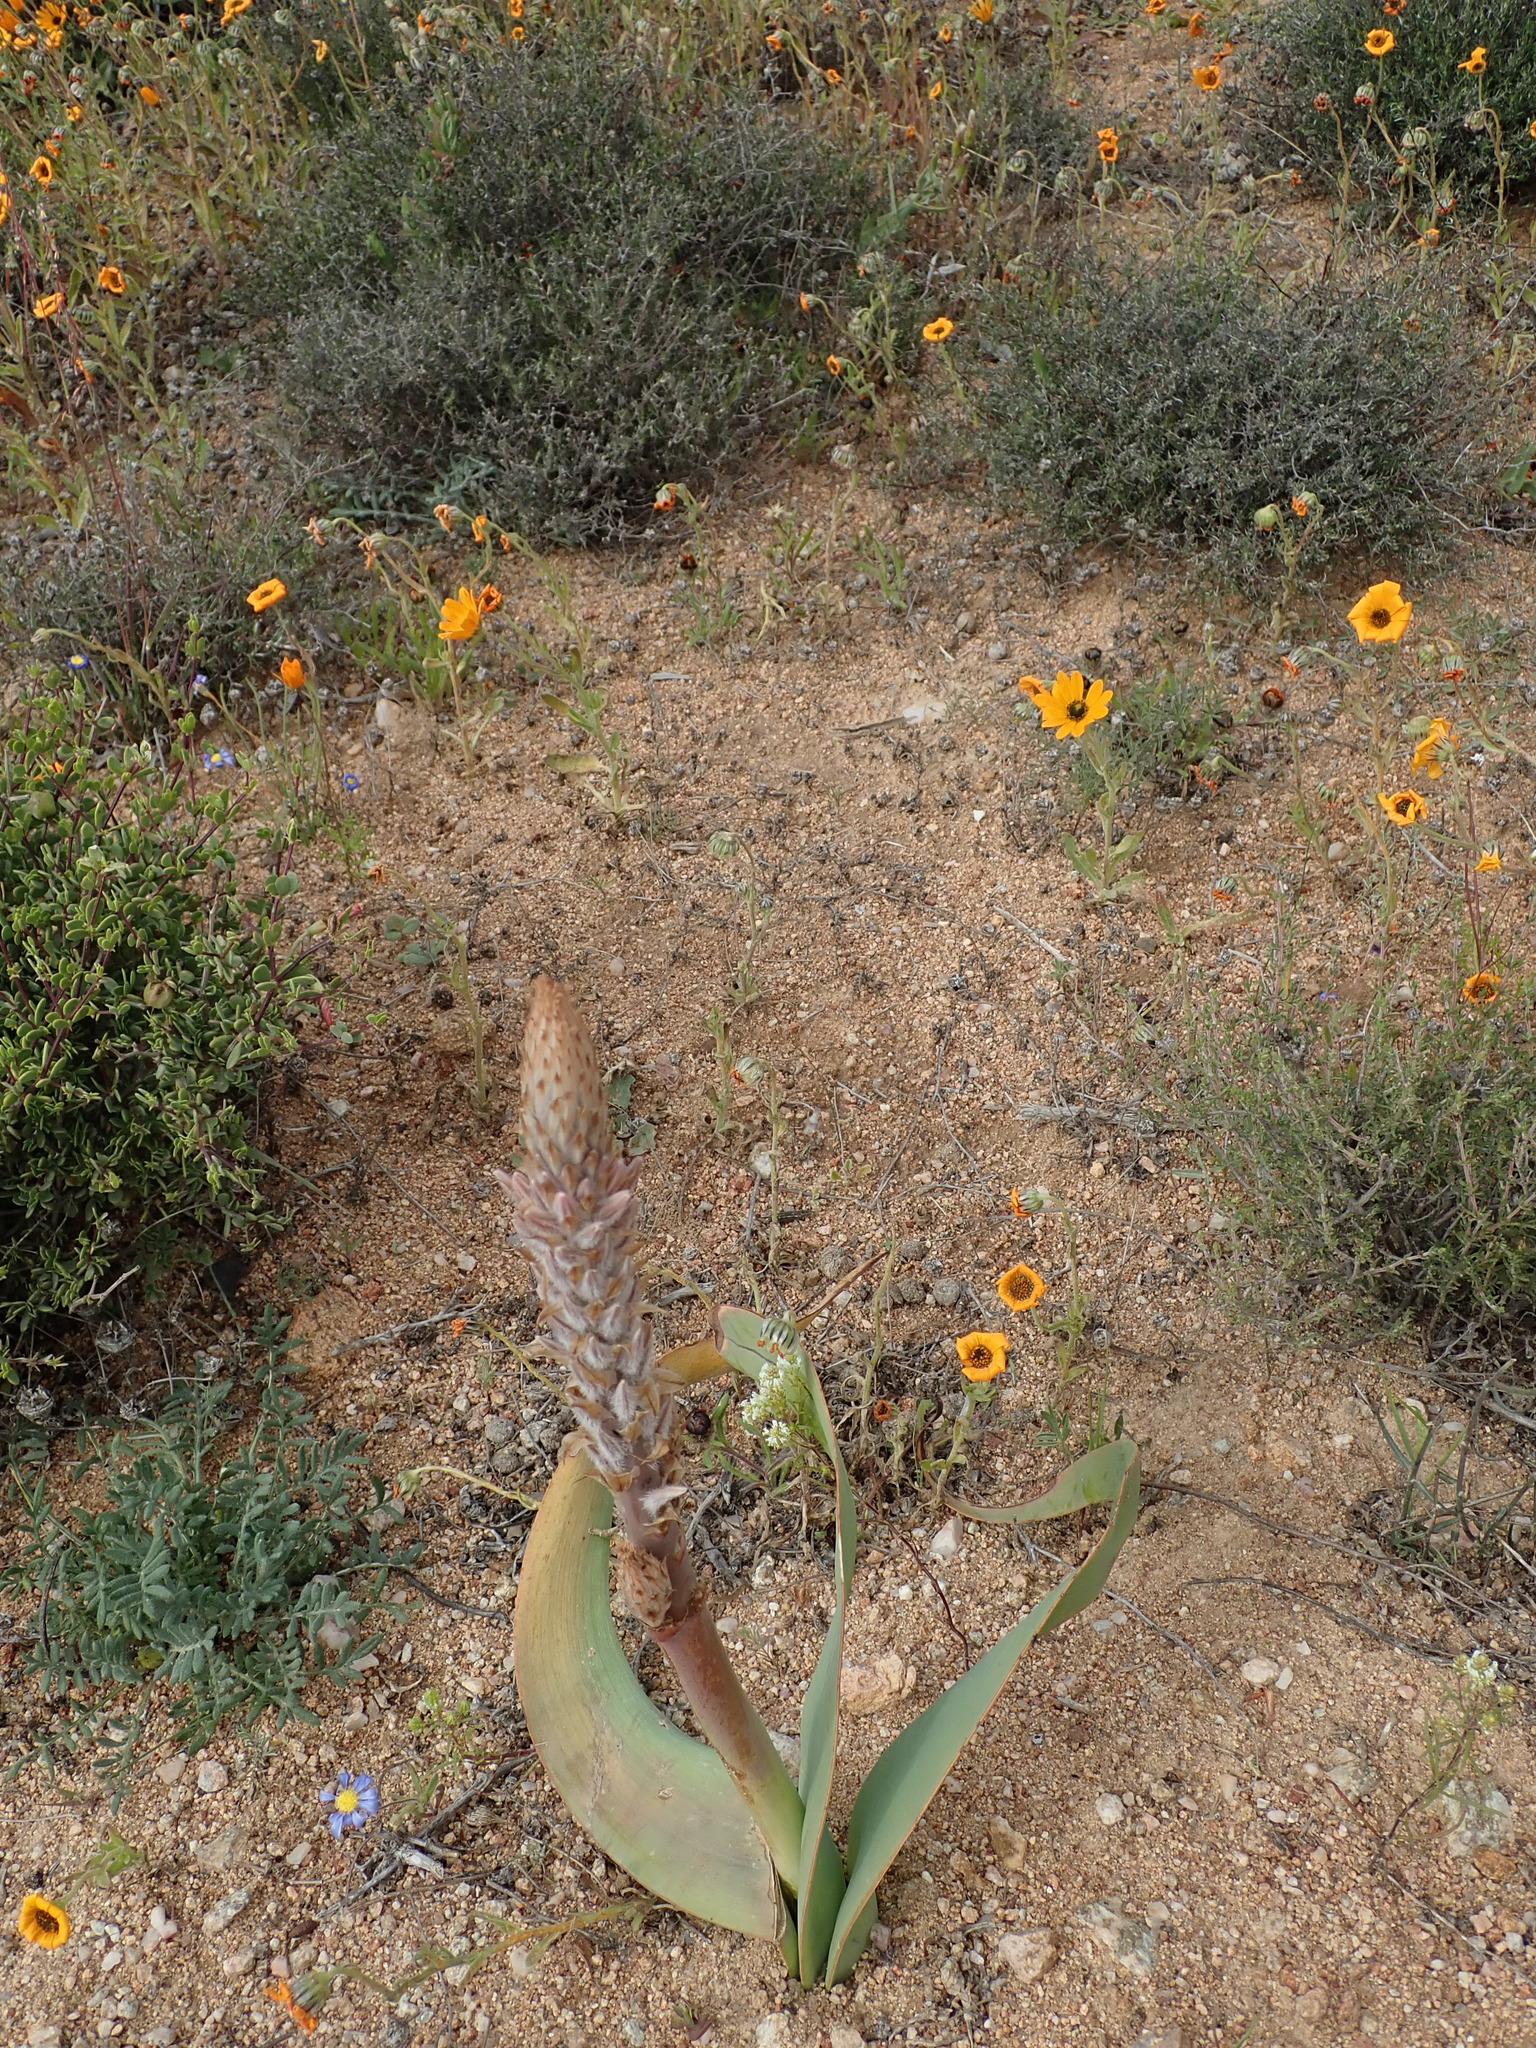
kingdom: Plantae
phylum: Tracheophyta
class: Liliopsida
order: Asparagales
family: Asphodelaceae
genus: Trachyandra
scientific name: Trachyandra falcata
